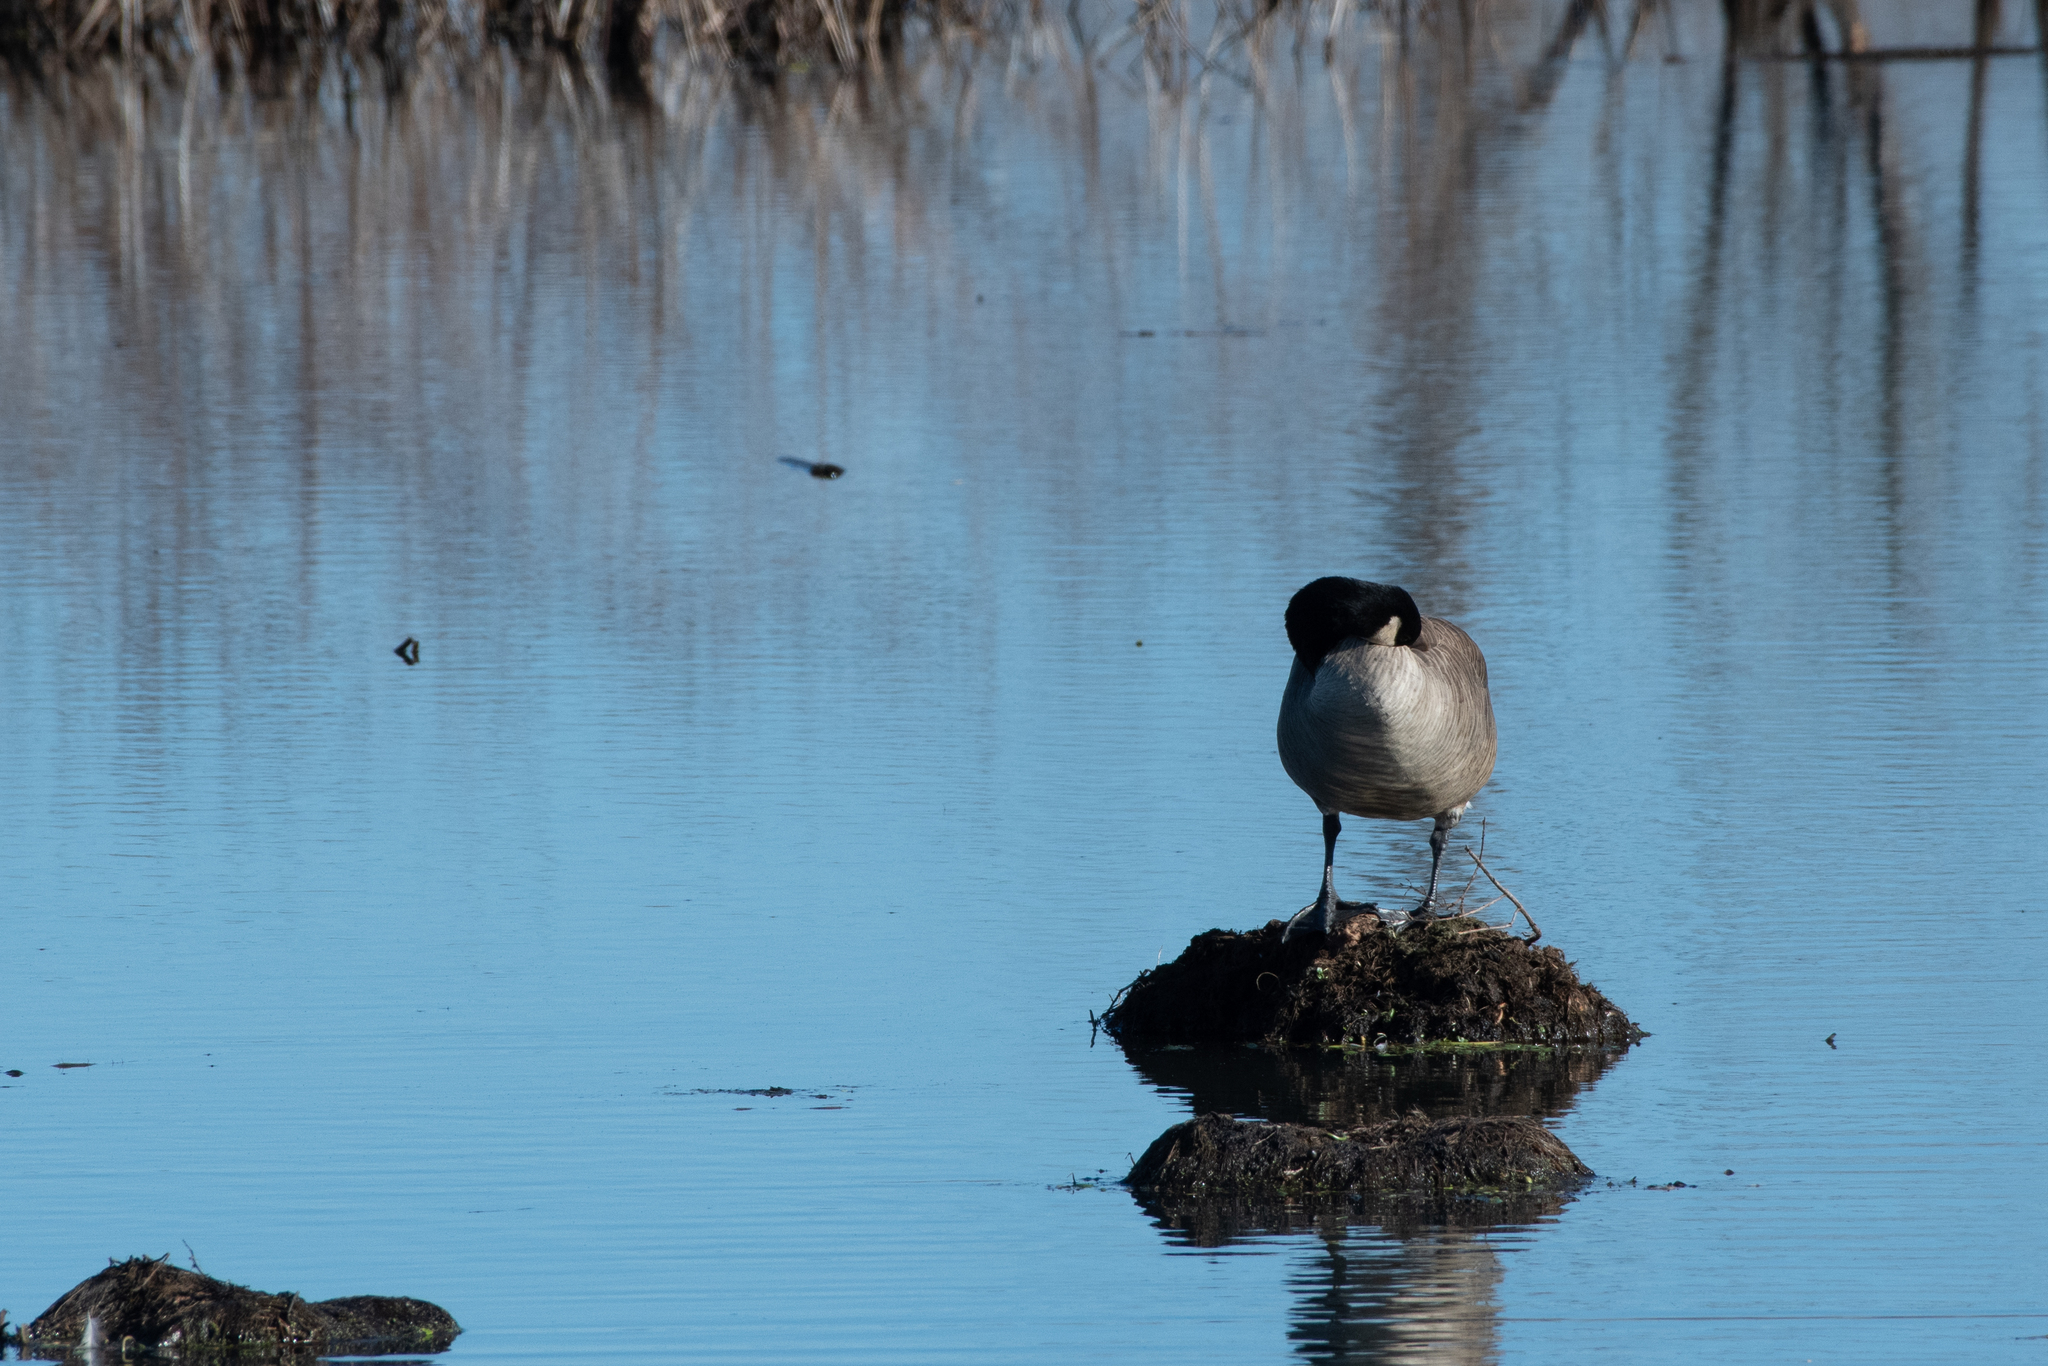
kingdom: Animalia
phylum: Chordata
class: Aves
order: Anseriformes
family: Anatidae
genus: Branta
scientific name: Branta canadensis
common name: Canada goose
